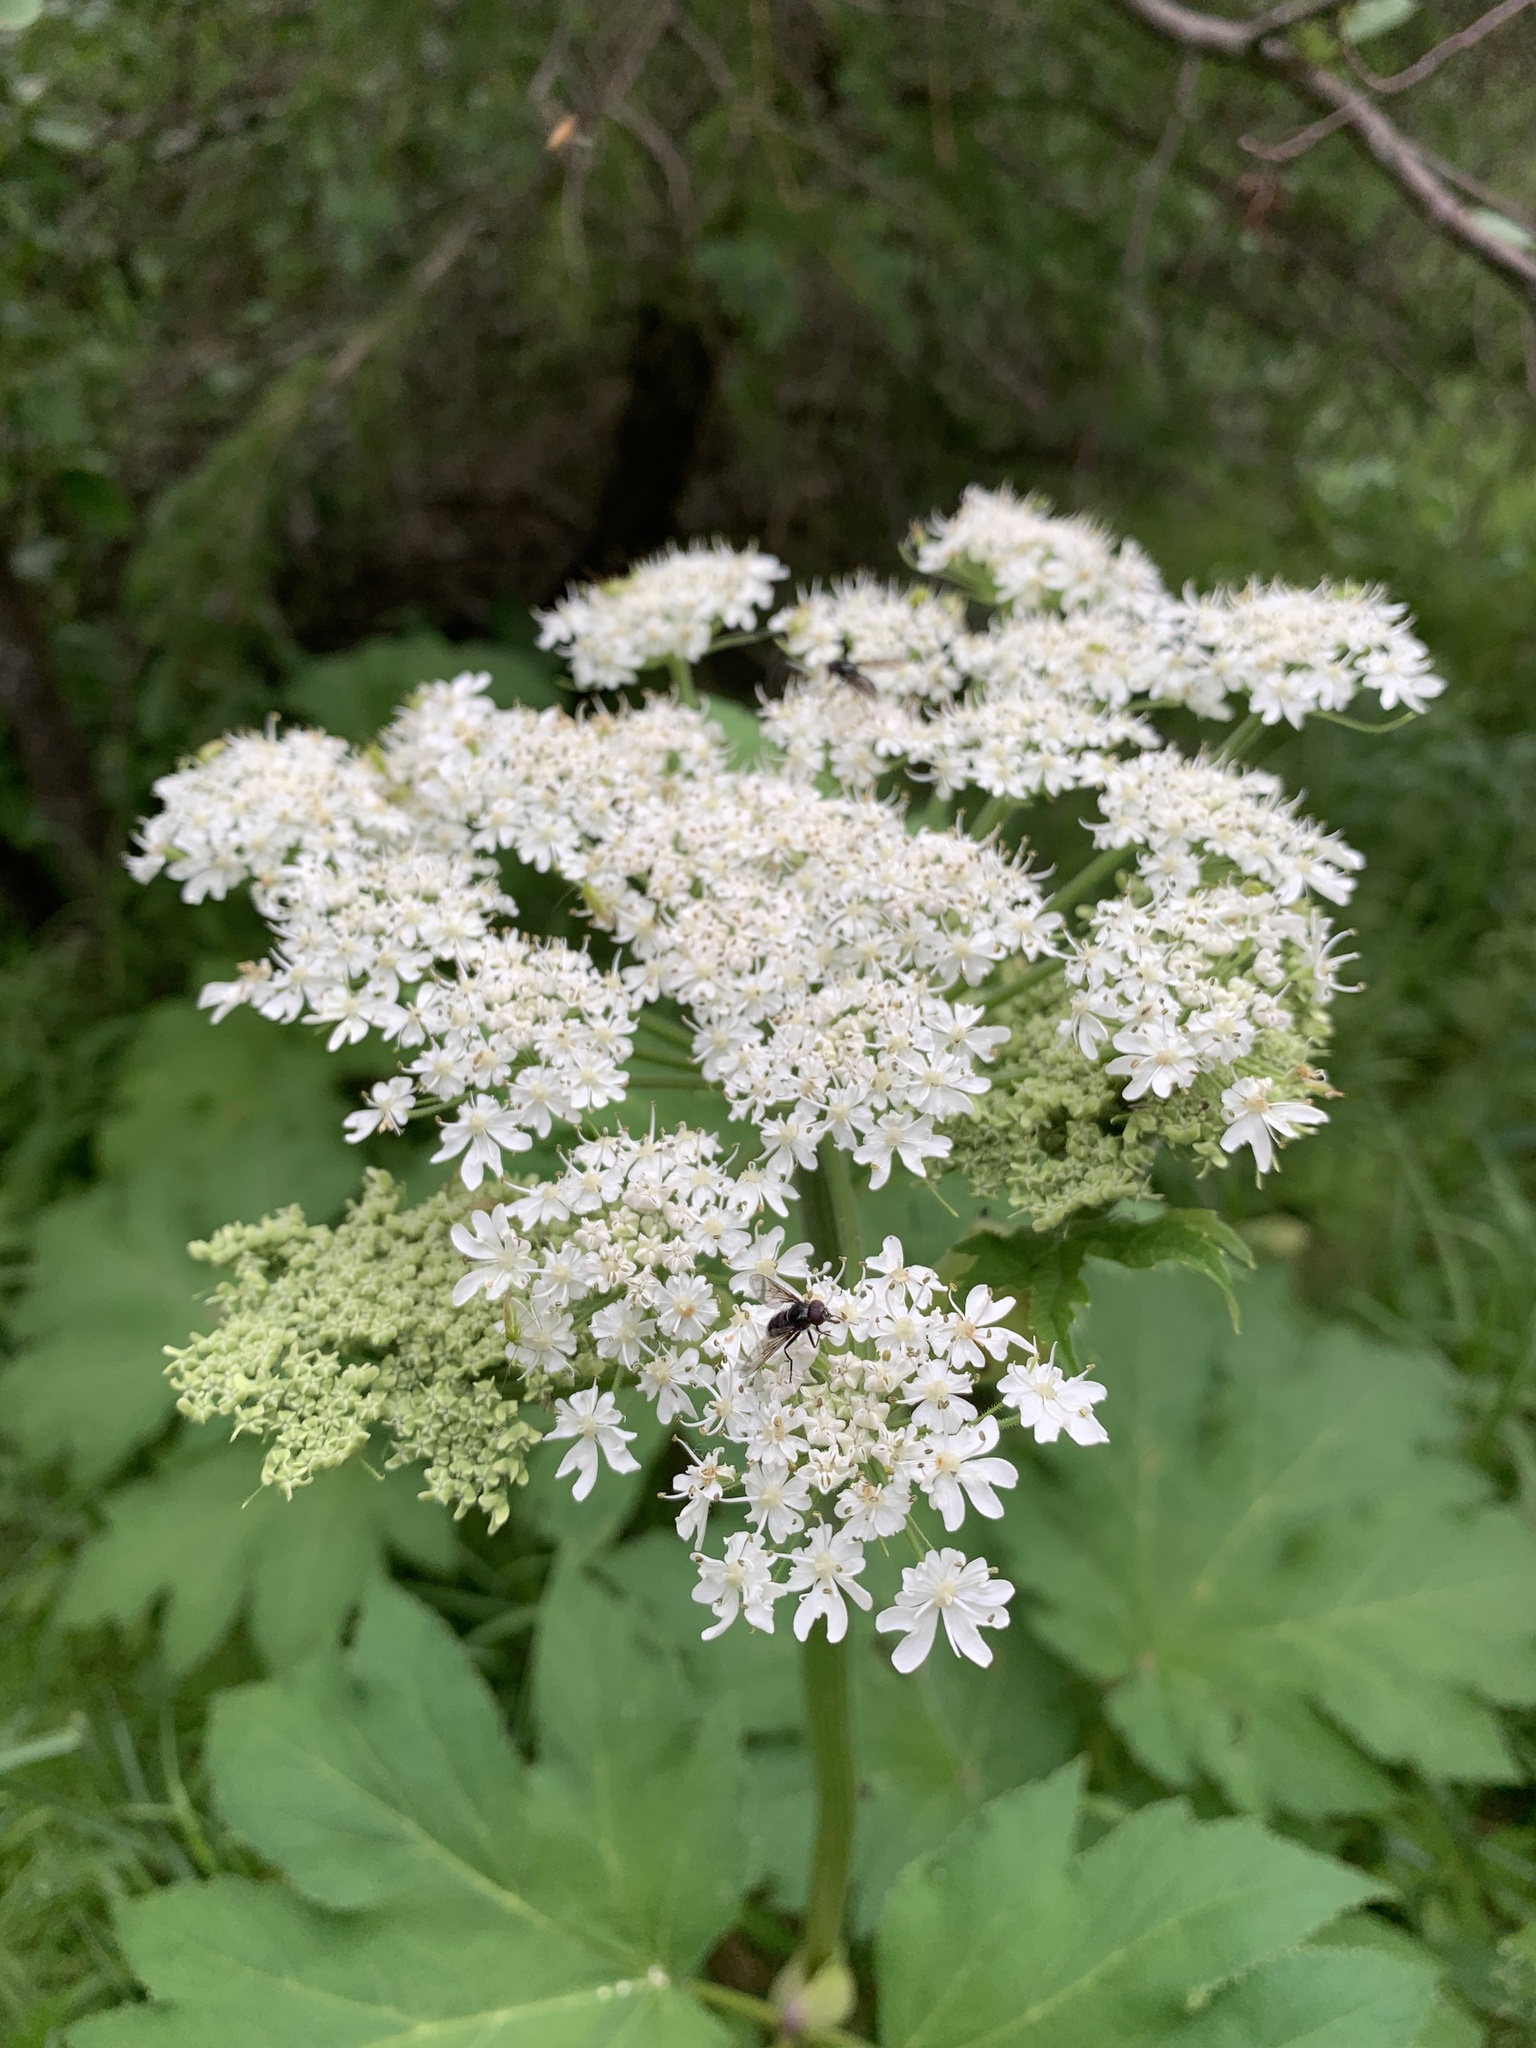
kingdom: Plantae
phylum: Tracheophyta
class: Magnoliopsida
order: Apiales
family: Apiaceae
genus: Heracleum
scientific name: Heracleum maximum
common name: American cow parsnip
